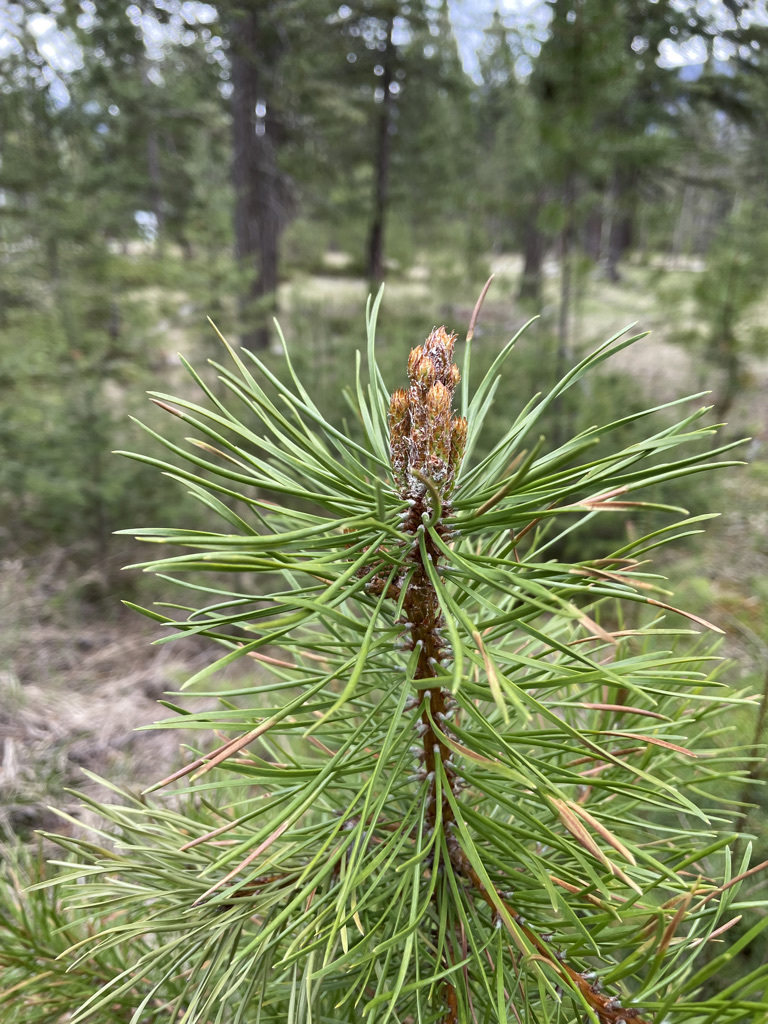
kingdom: Plantae
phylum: Tracheophyta
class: Pinopsida
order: Pinales
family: Pinaceae
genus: Pinus
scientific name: Pinus contorta
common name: Lodgepole pine
